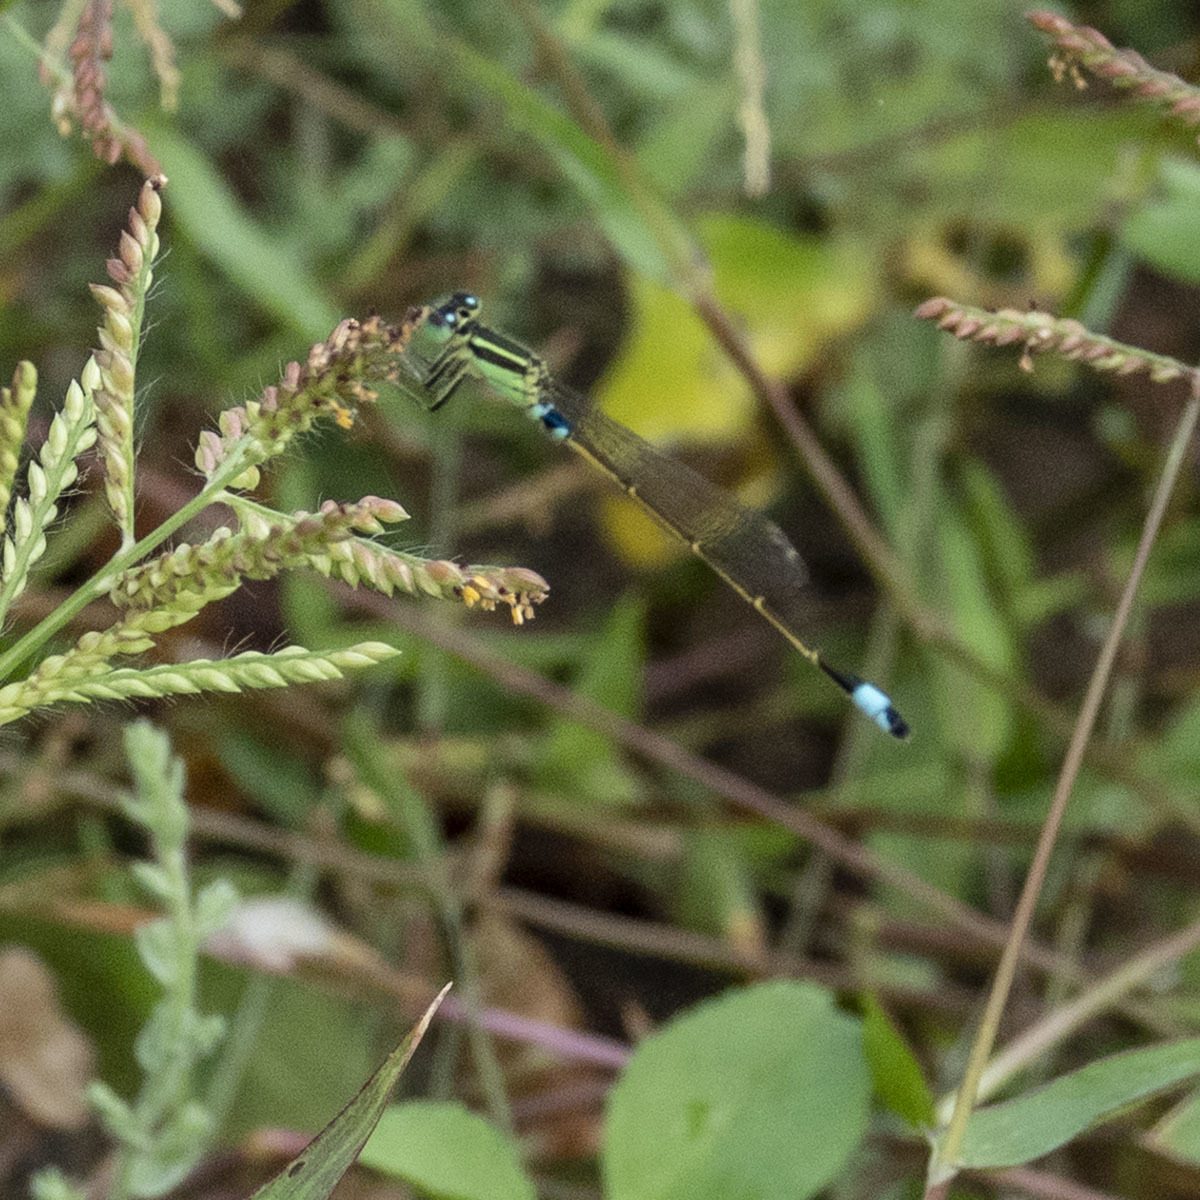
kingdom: Animalia
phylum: Arthropoda
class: Insecta
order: Odonata
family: Coenagrionidae
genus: Ischnura
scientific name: Ischnura senegalensis
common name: Tropical bluetail
